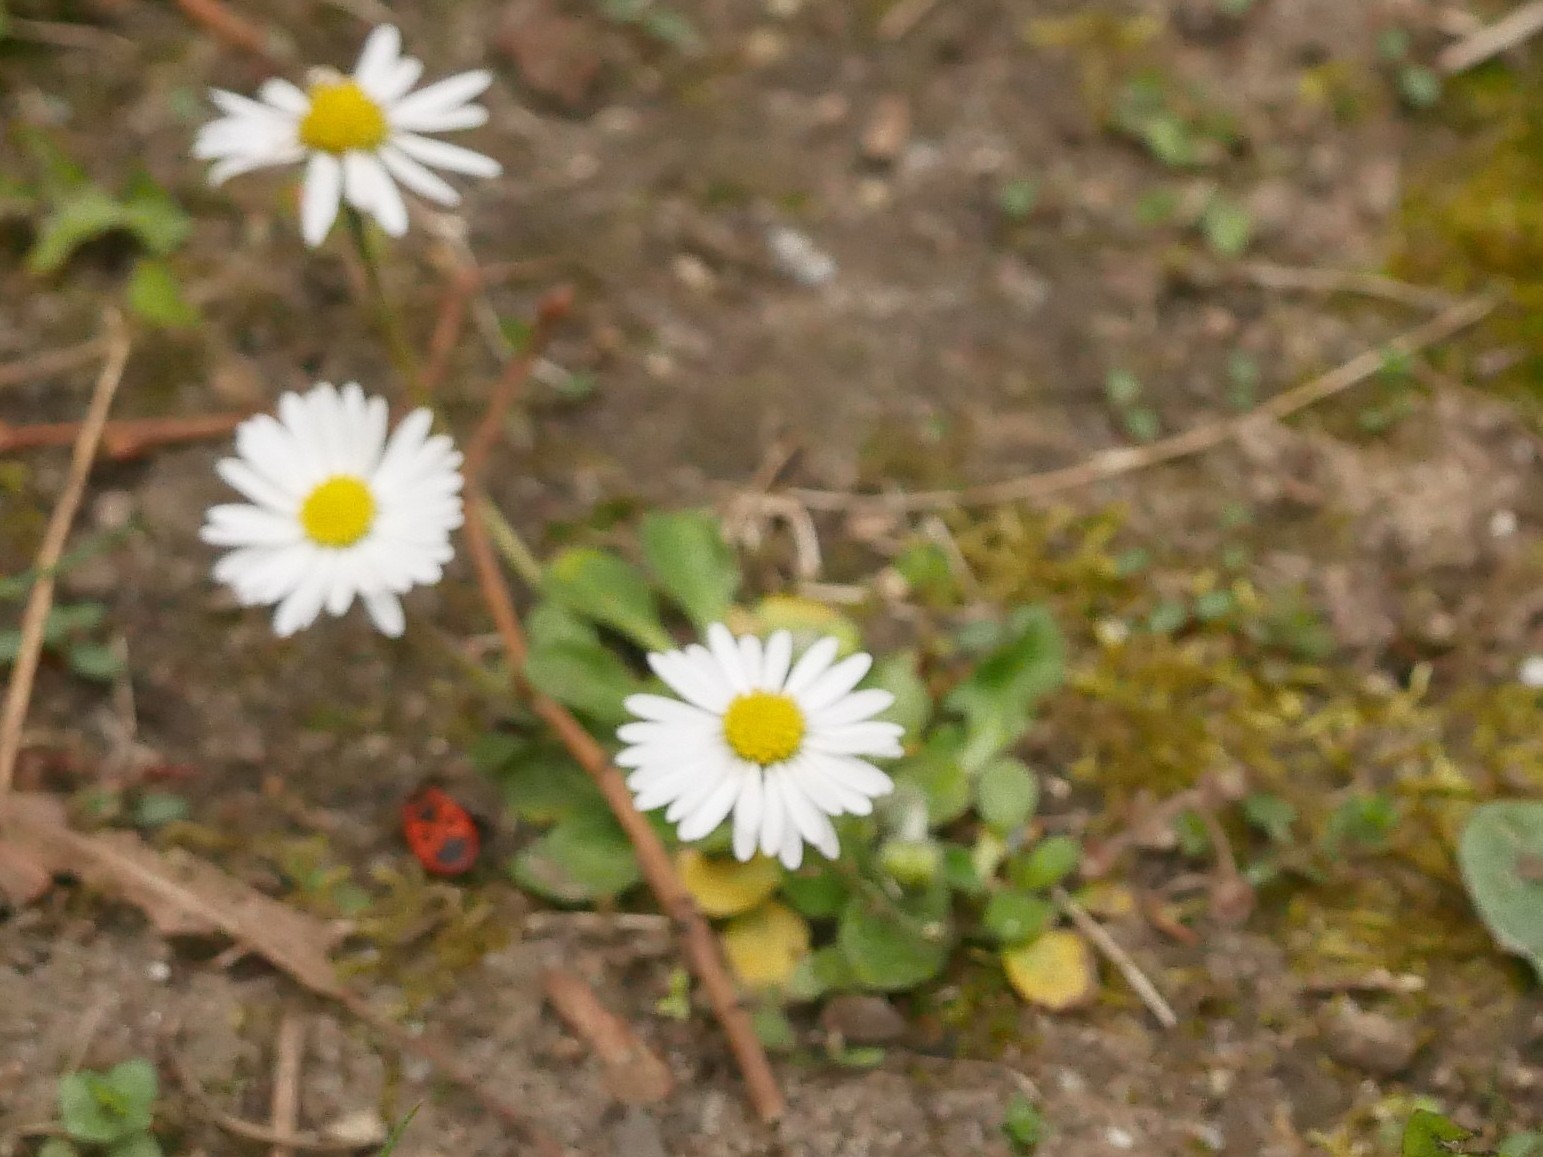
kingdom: Plantae
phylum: Tracheophyta
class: Magnoliopsida
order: Asterales
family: Asteraceae
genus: Bellis
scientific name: Bellis perennis
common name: Lawndaisy
